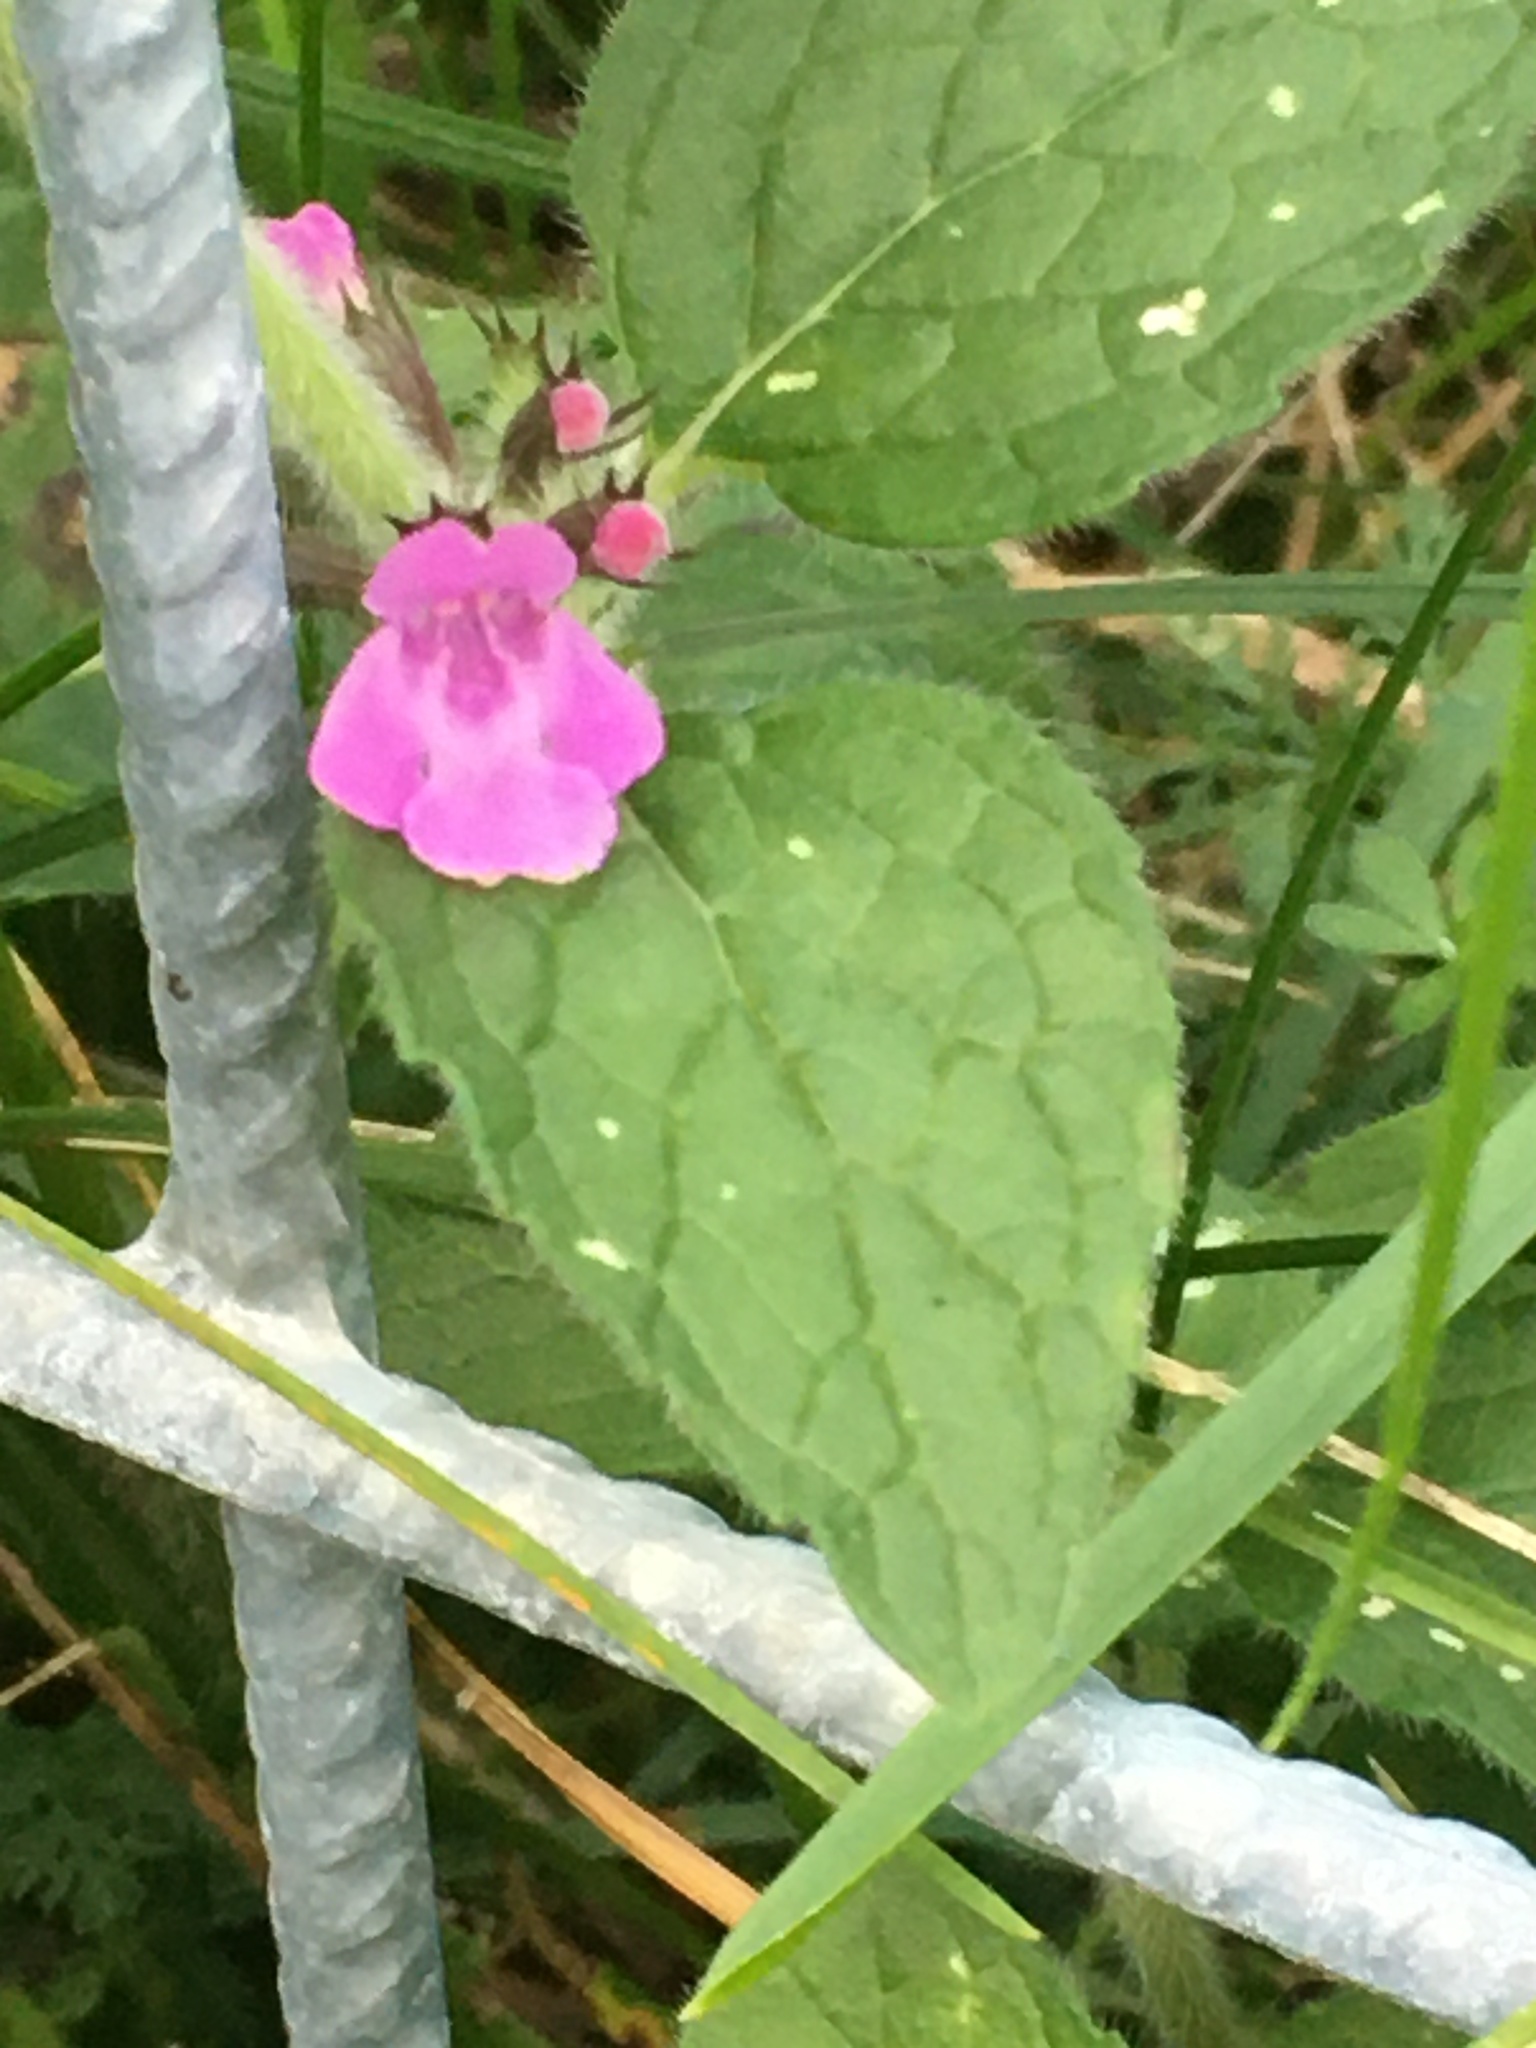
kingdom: Plantae
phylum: Tracheophyta
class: Magnoliopsida
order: Lamiales
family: Lamiaceae
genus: Clinopodium
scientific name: Clinopodium vulgare
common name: Wild basil
